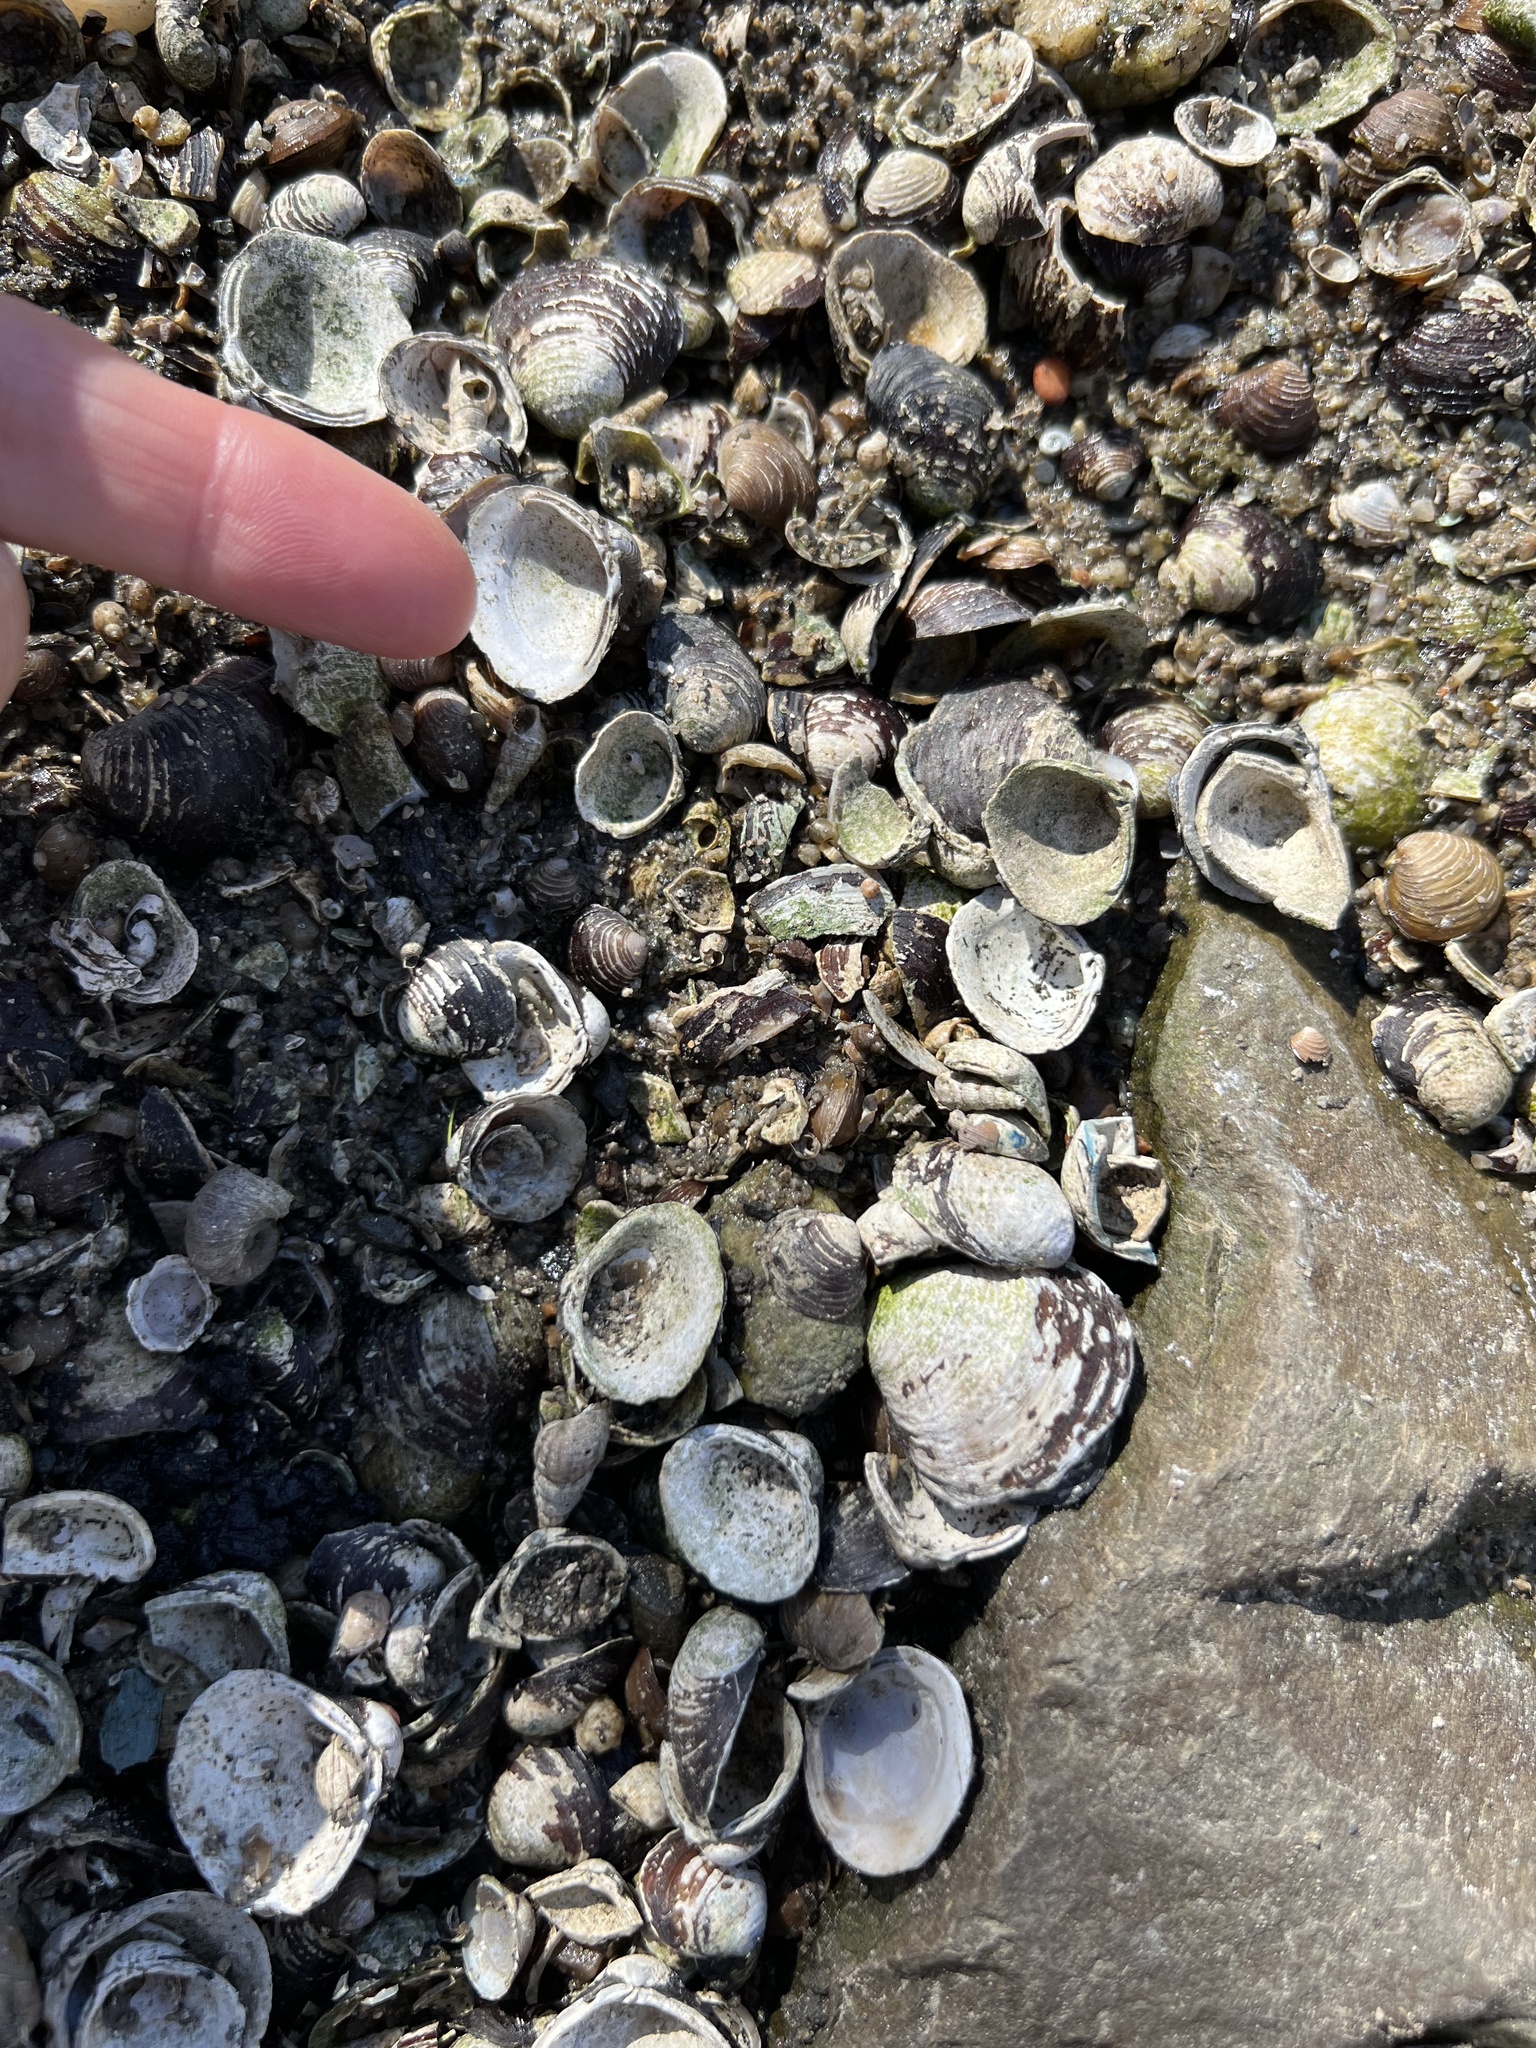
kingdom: Animalia
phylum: Mollusca
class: Bivalvia
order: Venerida
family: Cyrenidae
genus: Corbicula
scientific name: Corbicula fluminea
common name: Asian clam
